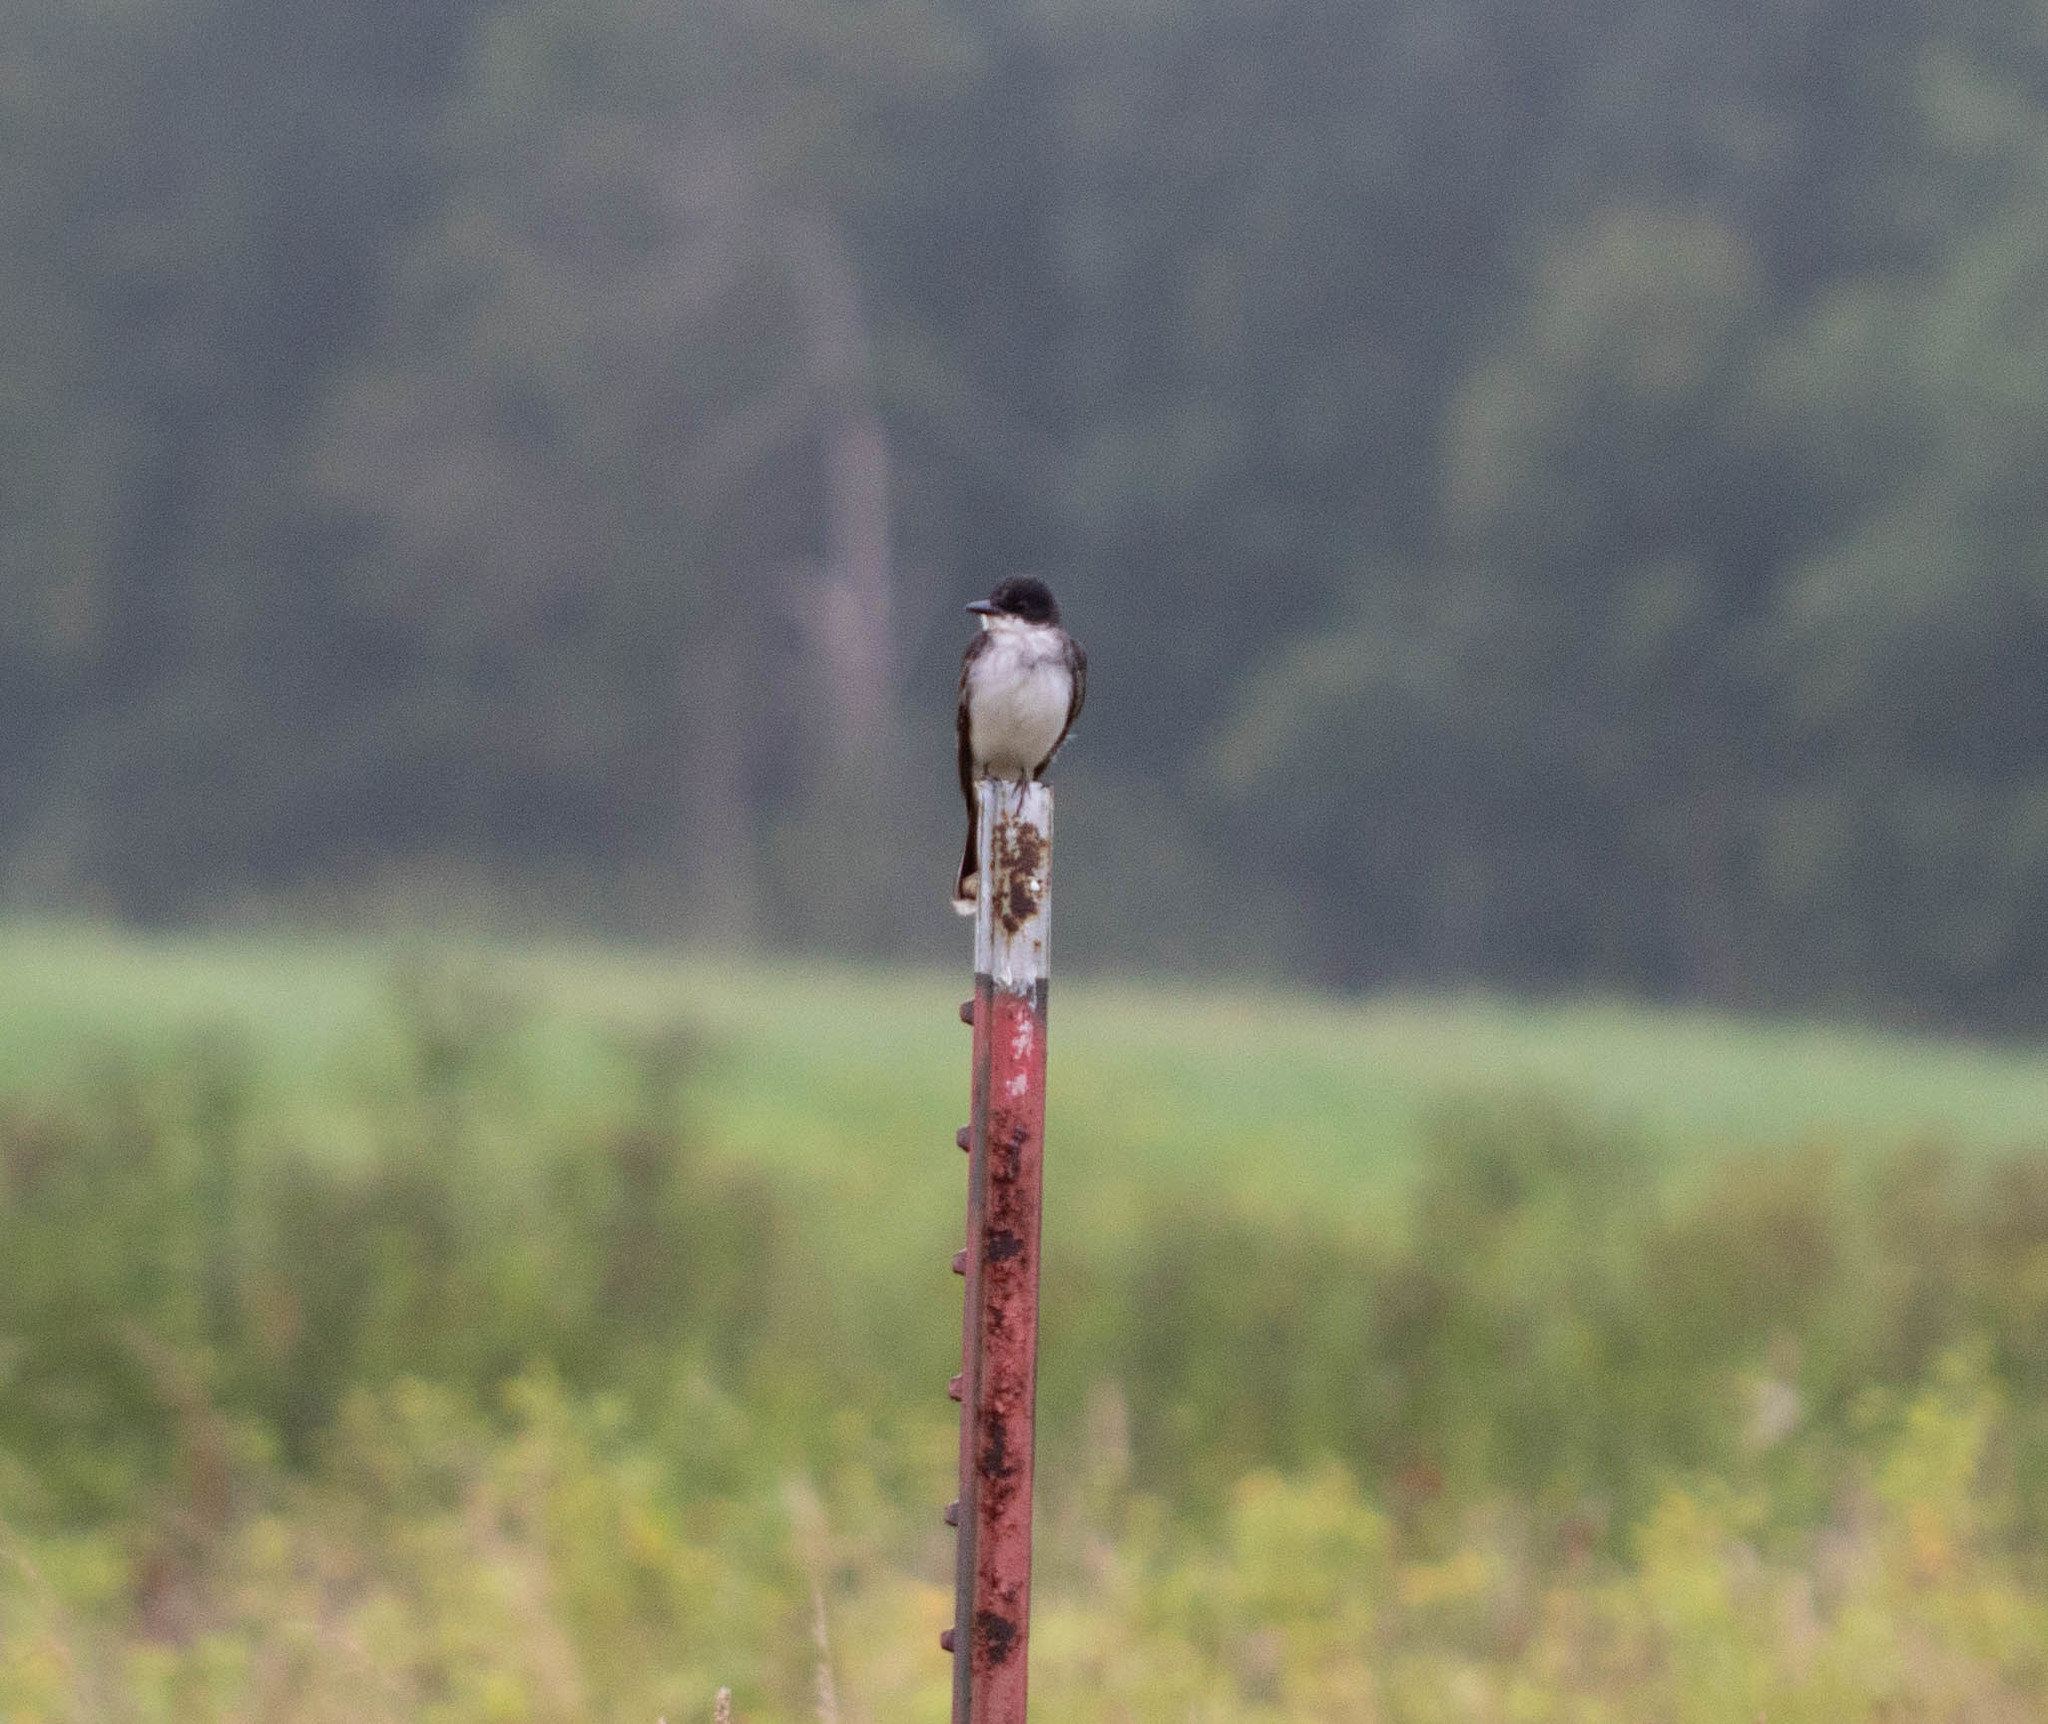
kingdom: Animalia
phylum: Chordata
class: Aves
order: Passeriformes
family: Tyrannidae
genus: Tyrannus
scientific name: Tyrannus tyrannus
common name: Eastern kingbird
